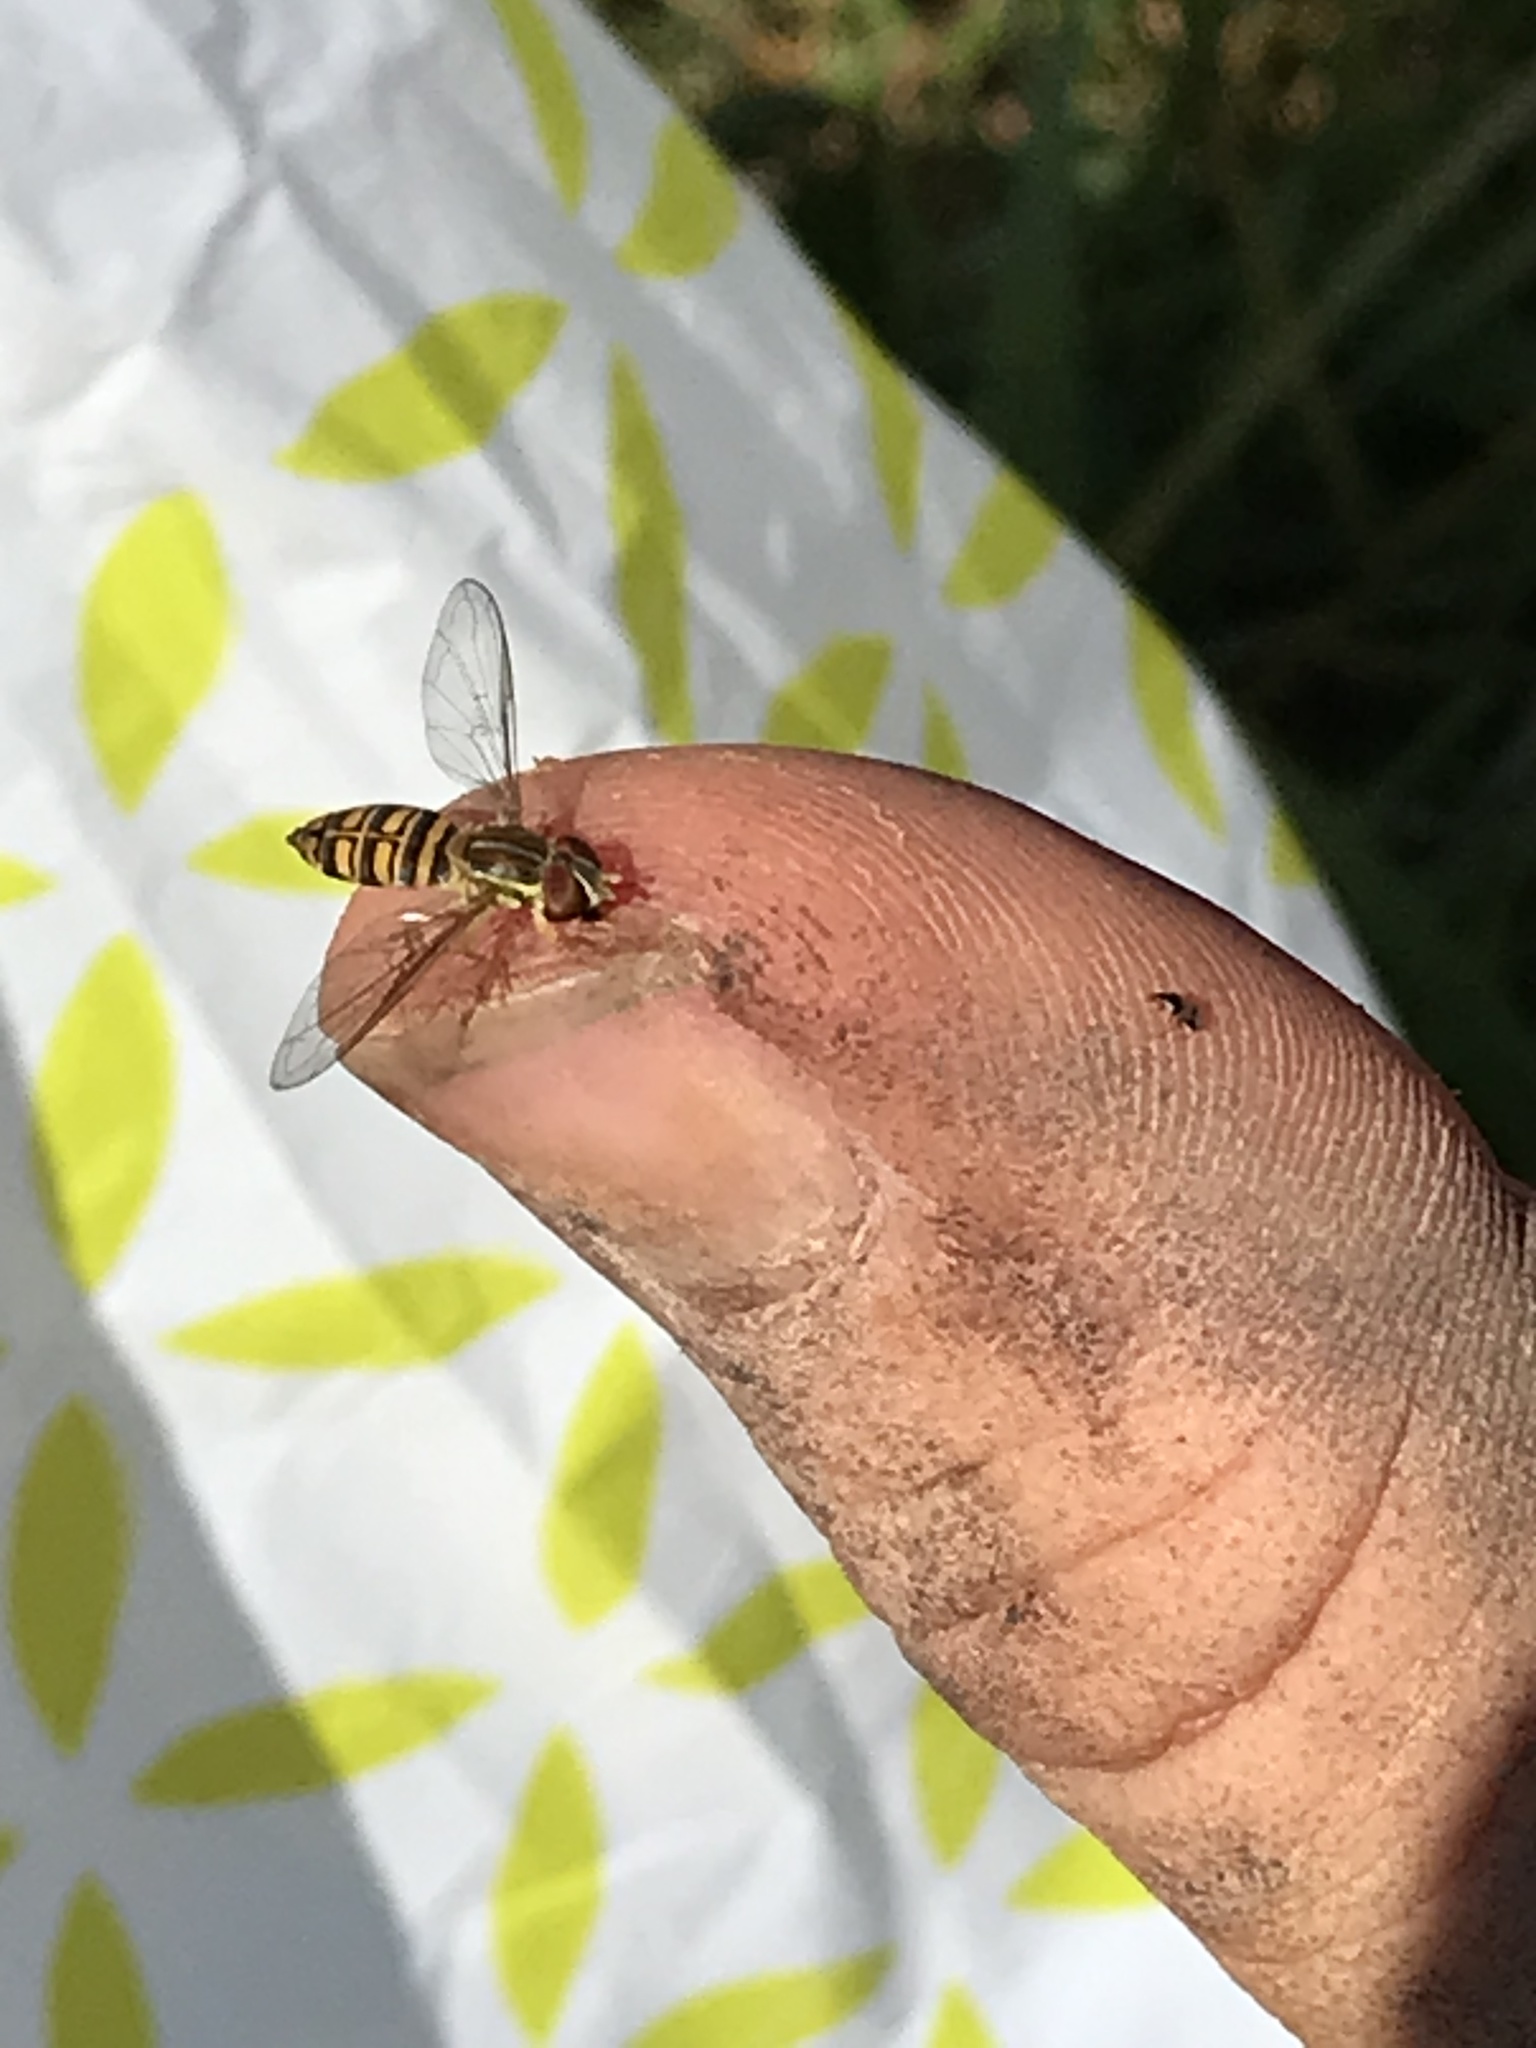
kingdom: Animalia
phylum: Arthropoda
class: Insecta
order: Diptera
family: Syrphidae
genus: Toxomerus
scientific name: Toxomerus politus
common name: Maize calligrapher
